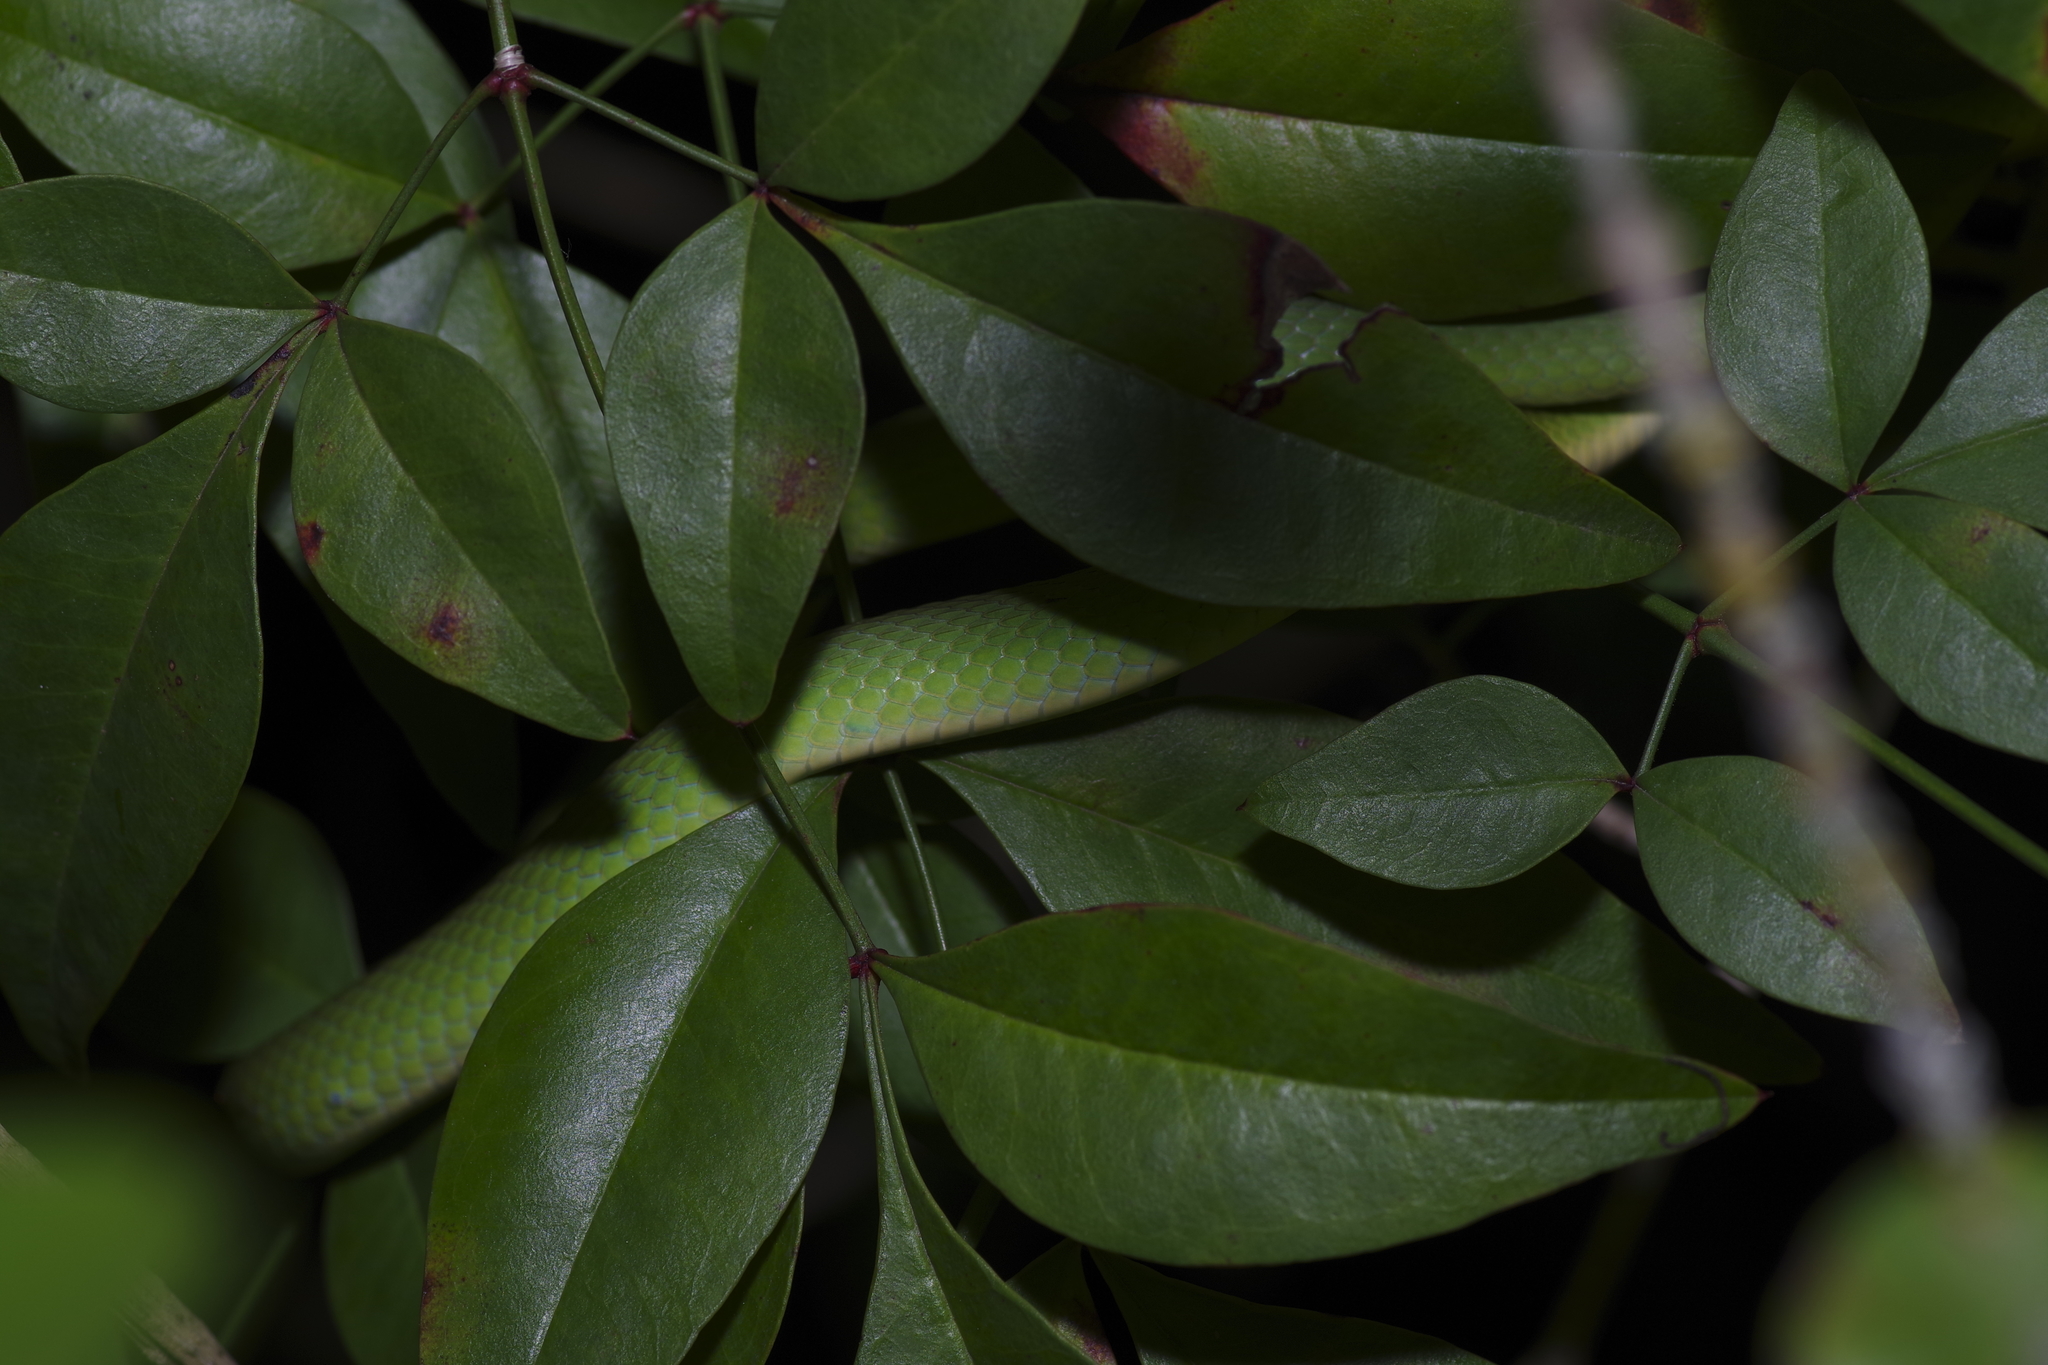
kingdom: Animalia
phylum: Chordata
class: Squamata
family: Colubridae
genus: Opheodrys
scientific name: Opheodrys aestivus
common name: Rough greensnake
